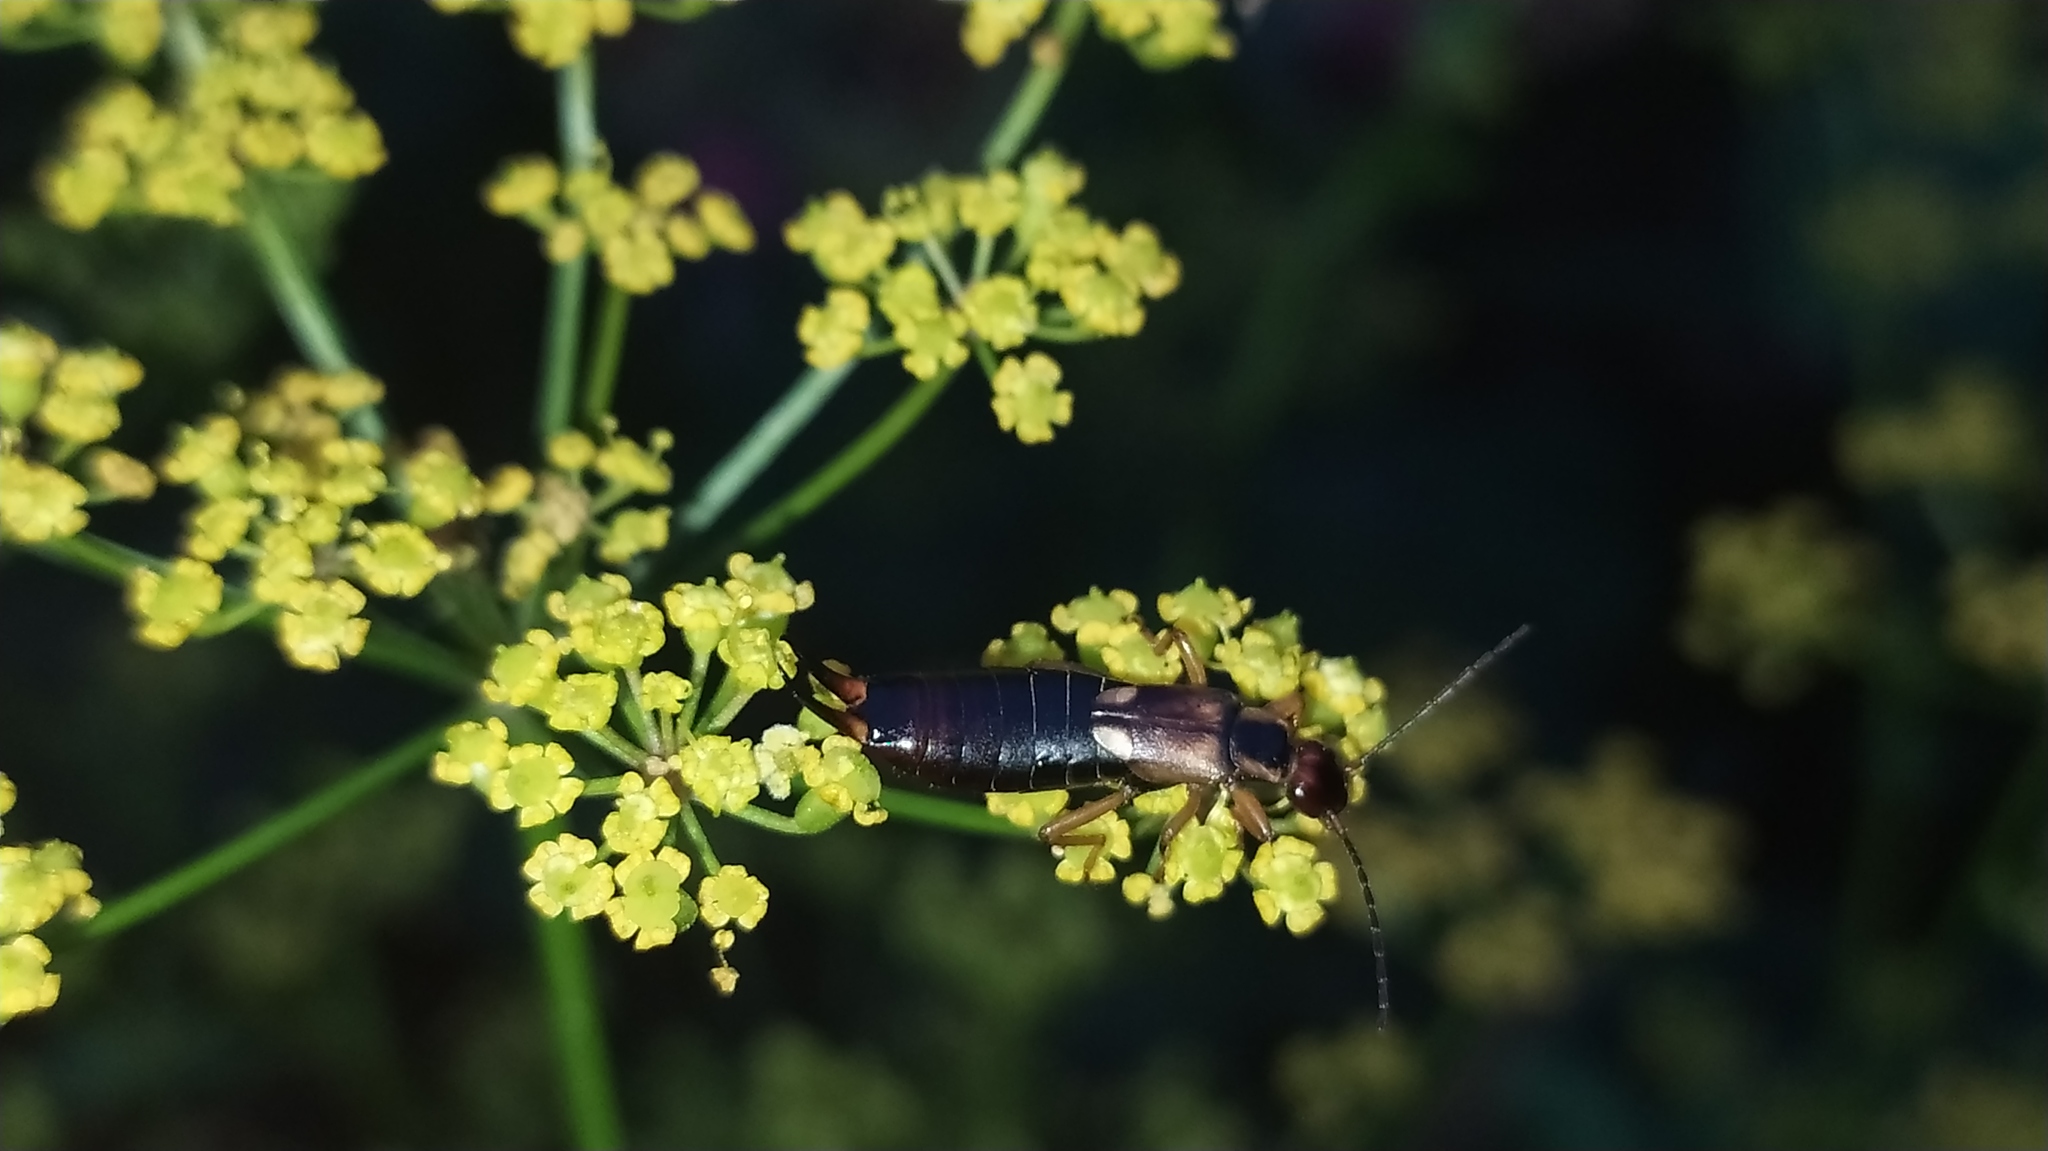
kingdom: Animalia
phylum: Arthropoda
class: Insecta
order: Dermaptera
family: Forficulidae
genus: Forficula
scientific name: Forficula
